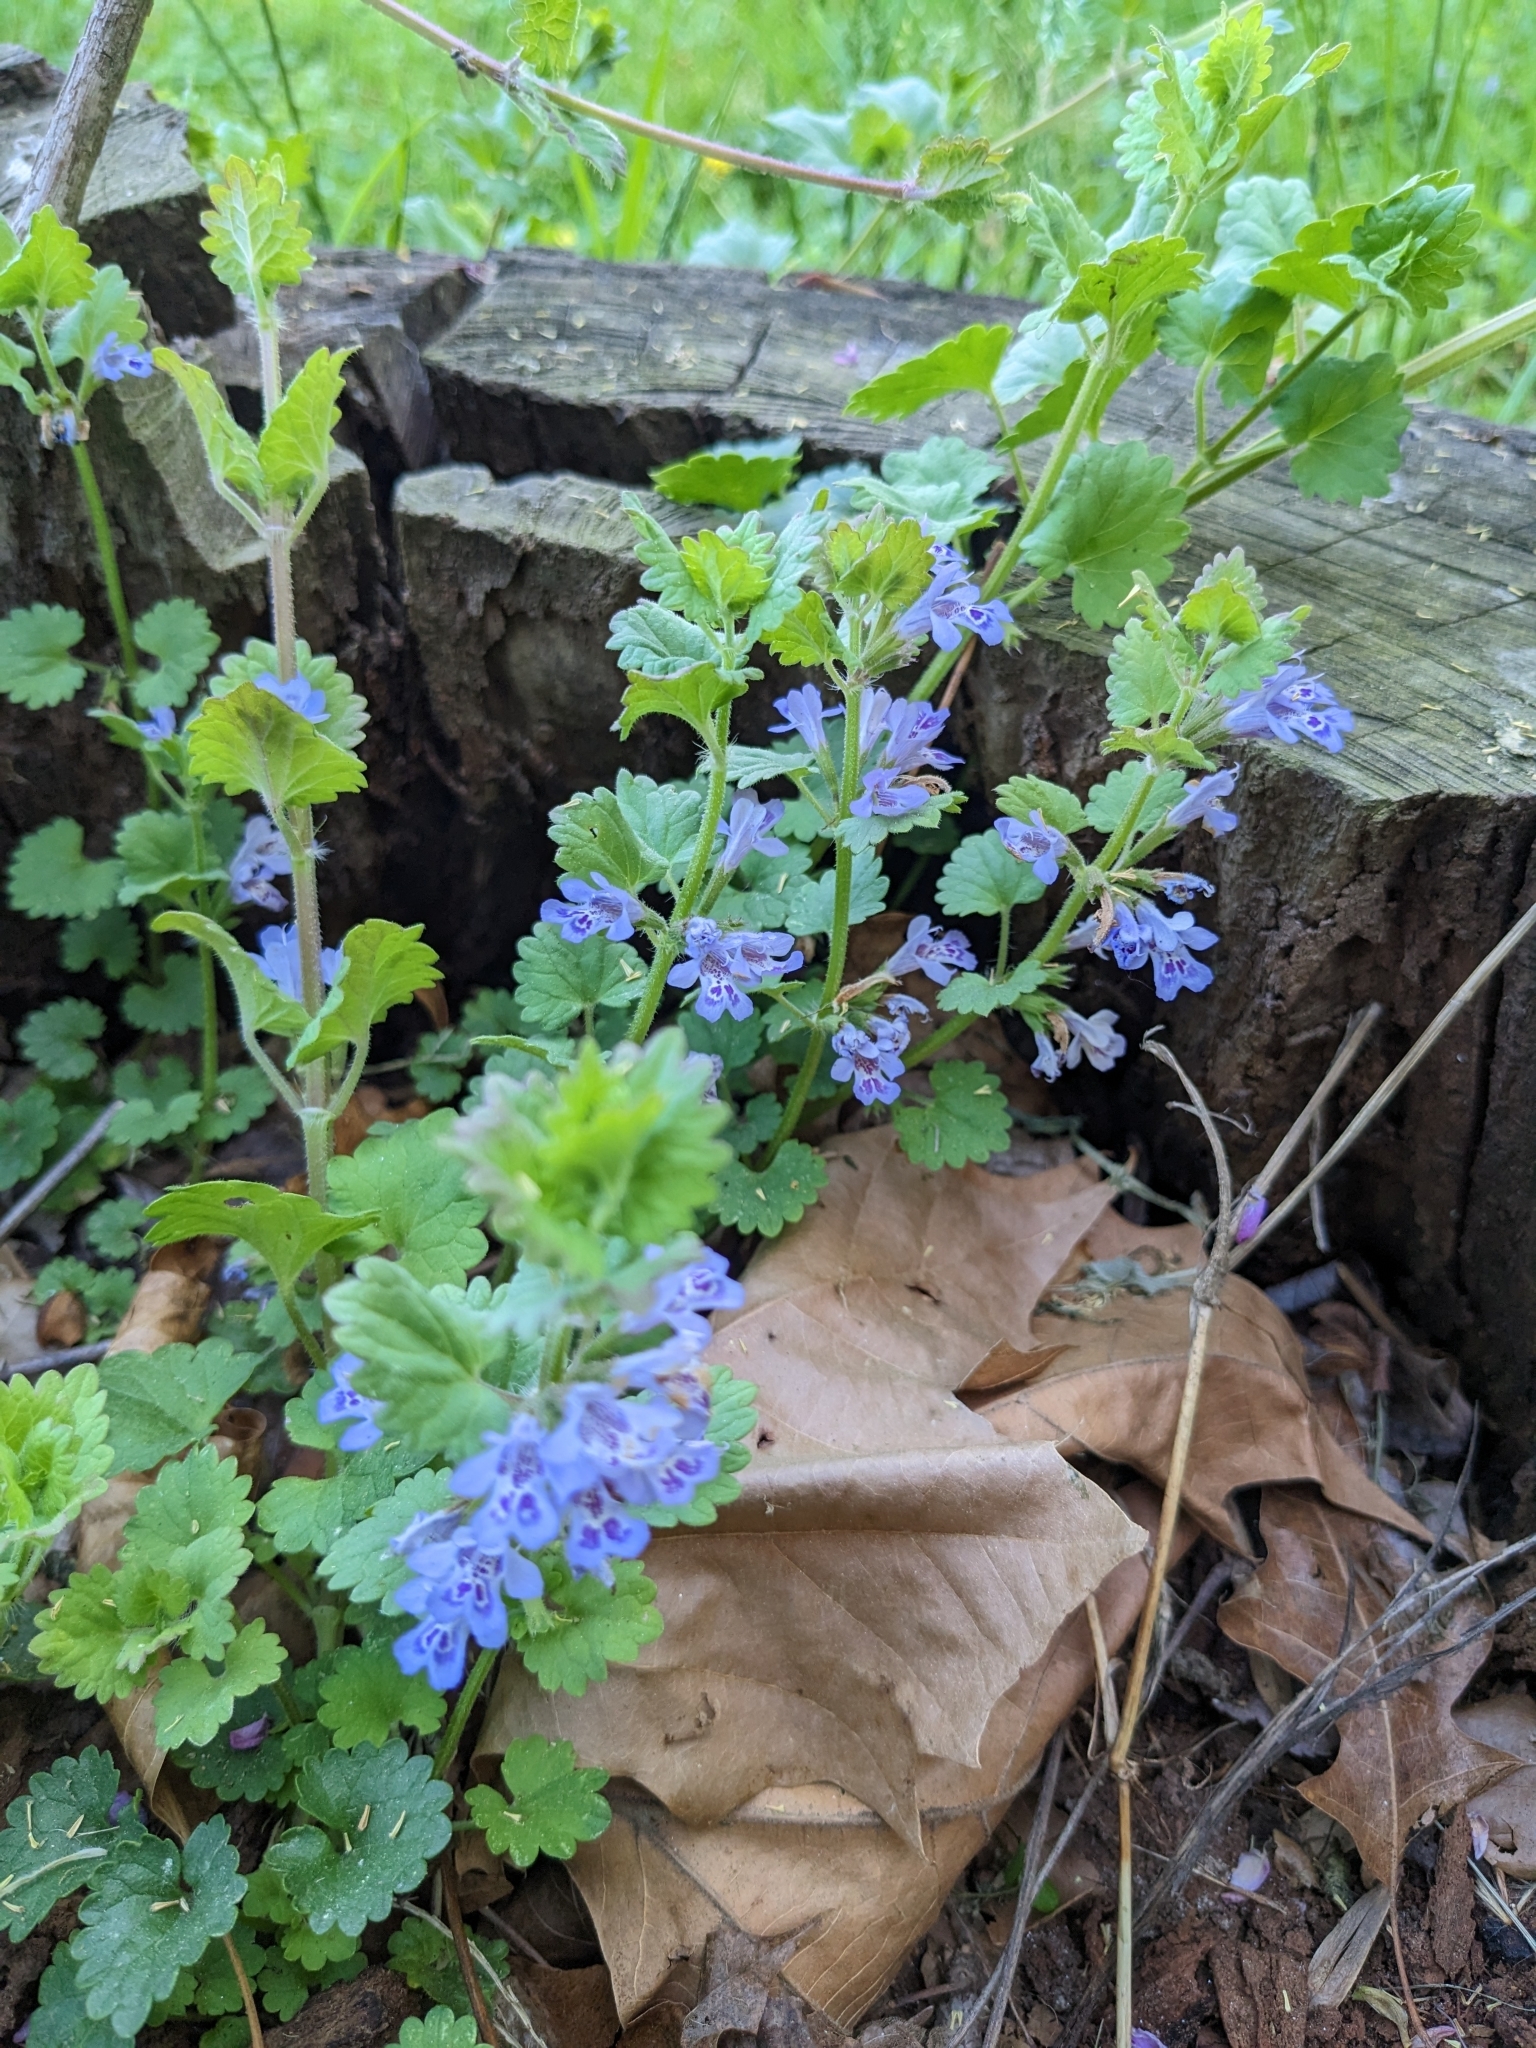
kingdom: Plantae
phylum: Tracheophyta
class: Magnoliopsida
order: Lamiales
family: Lamiaceae
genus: Glechoma
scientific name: Glechoma hederacea
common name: Ground ivy
